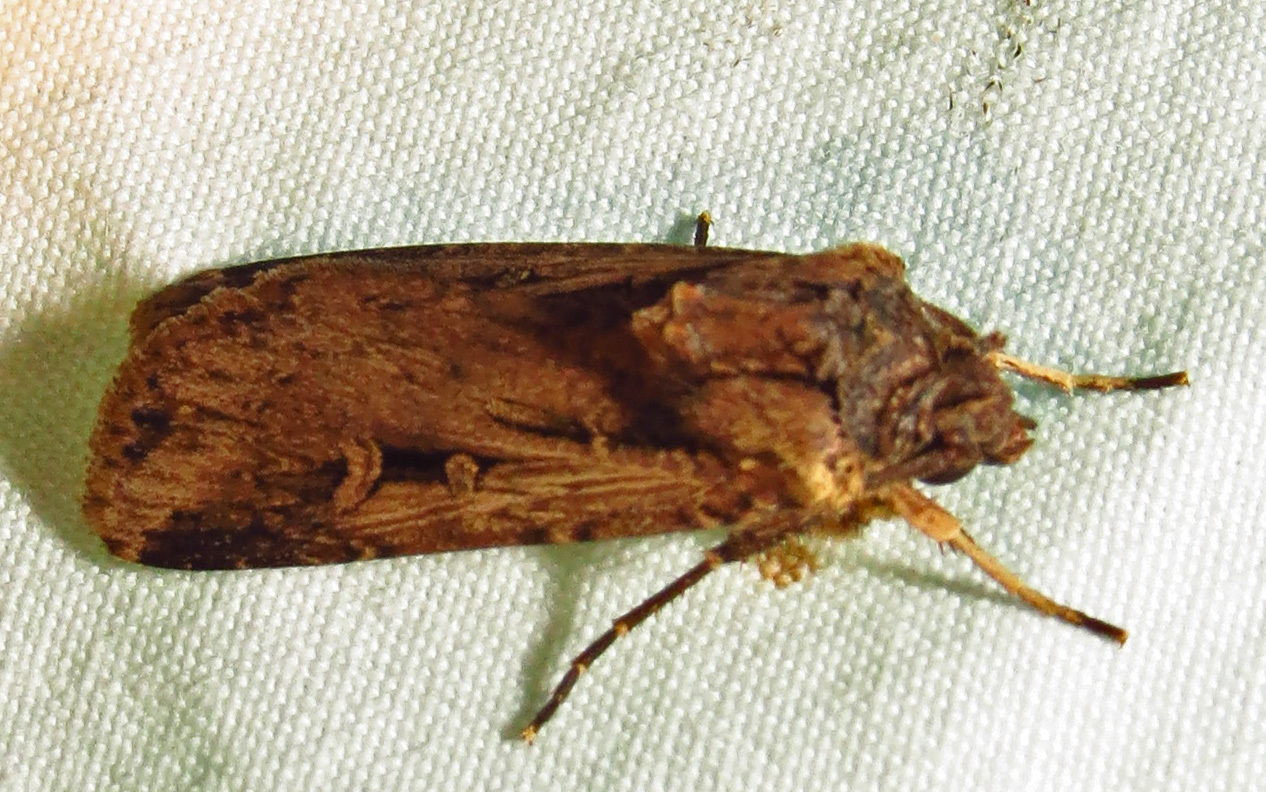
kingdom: Animalia
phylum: Arthropoda
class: Insecta
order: Lepidoptera
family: Noctuidae
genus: Feltia
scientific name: Feltia subterranea
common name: Granulate cutworm
